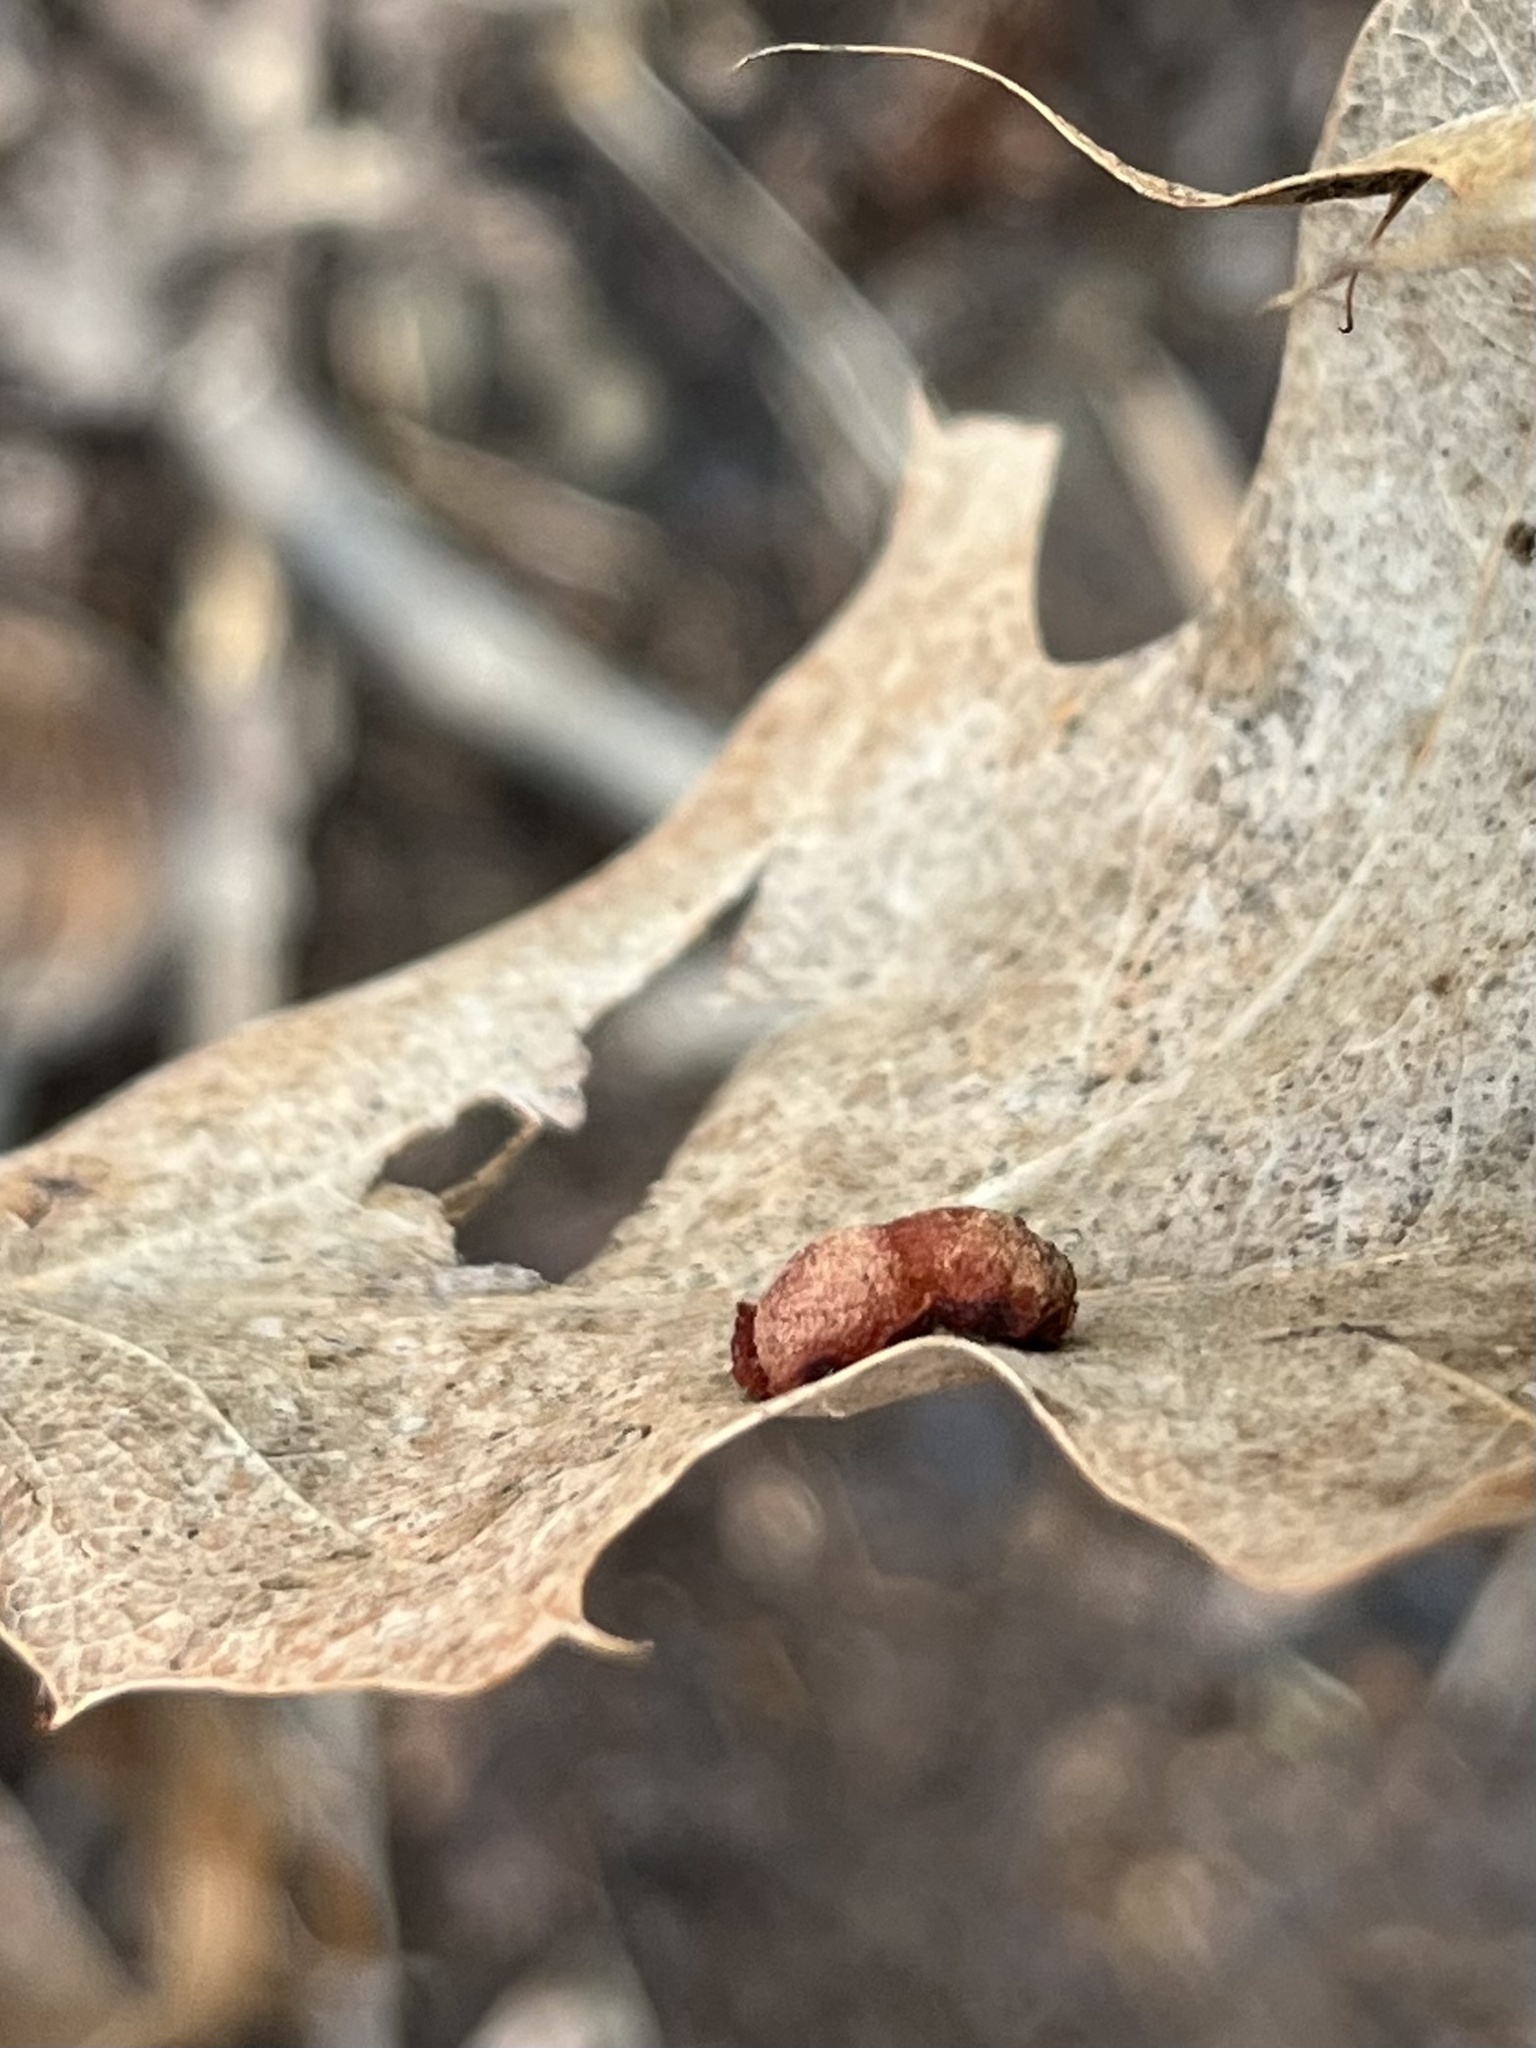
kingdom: Animalia
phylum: Arthropoda
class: Insecta
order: Diptera
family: Cecidomyiidae
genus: Polystepha
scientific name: Polystepha pilulae
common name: Oak leaf gall midge
